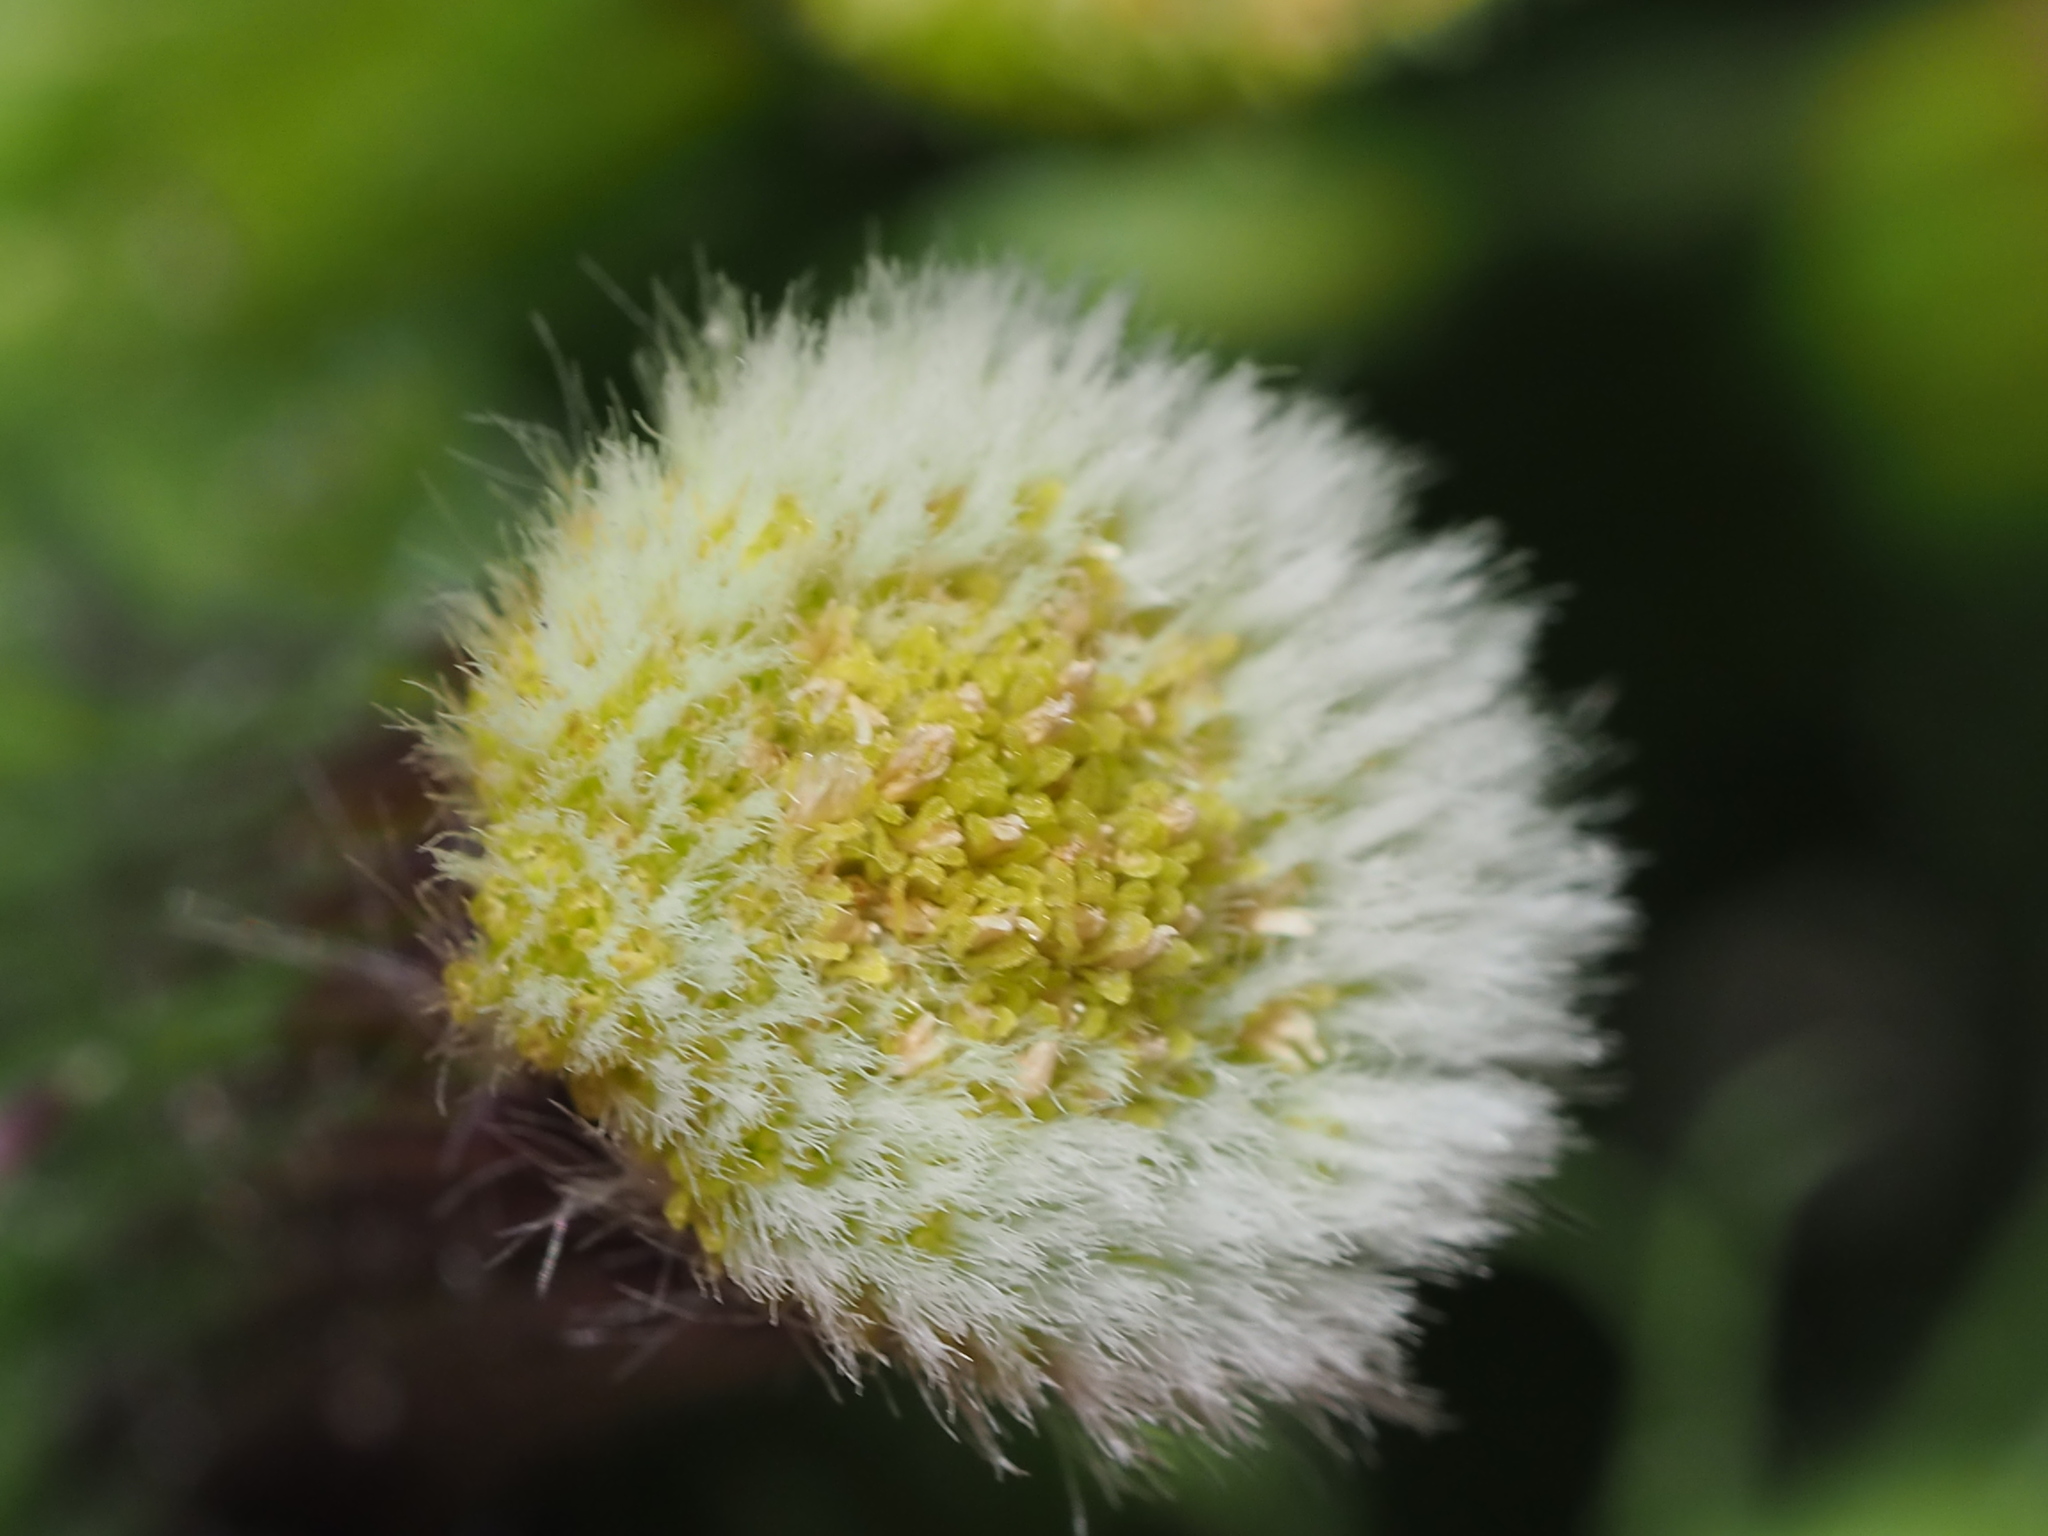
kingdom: Plantae
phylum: Tracheophyta
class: Magnoliopsida
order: Asterales
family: Asteraceae
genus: Erechtites
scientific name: Erechtites hieraciifolius
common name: American burnweed
